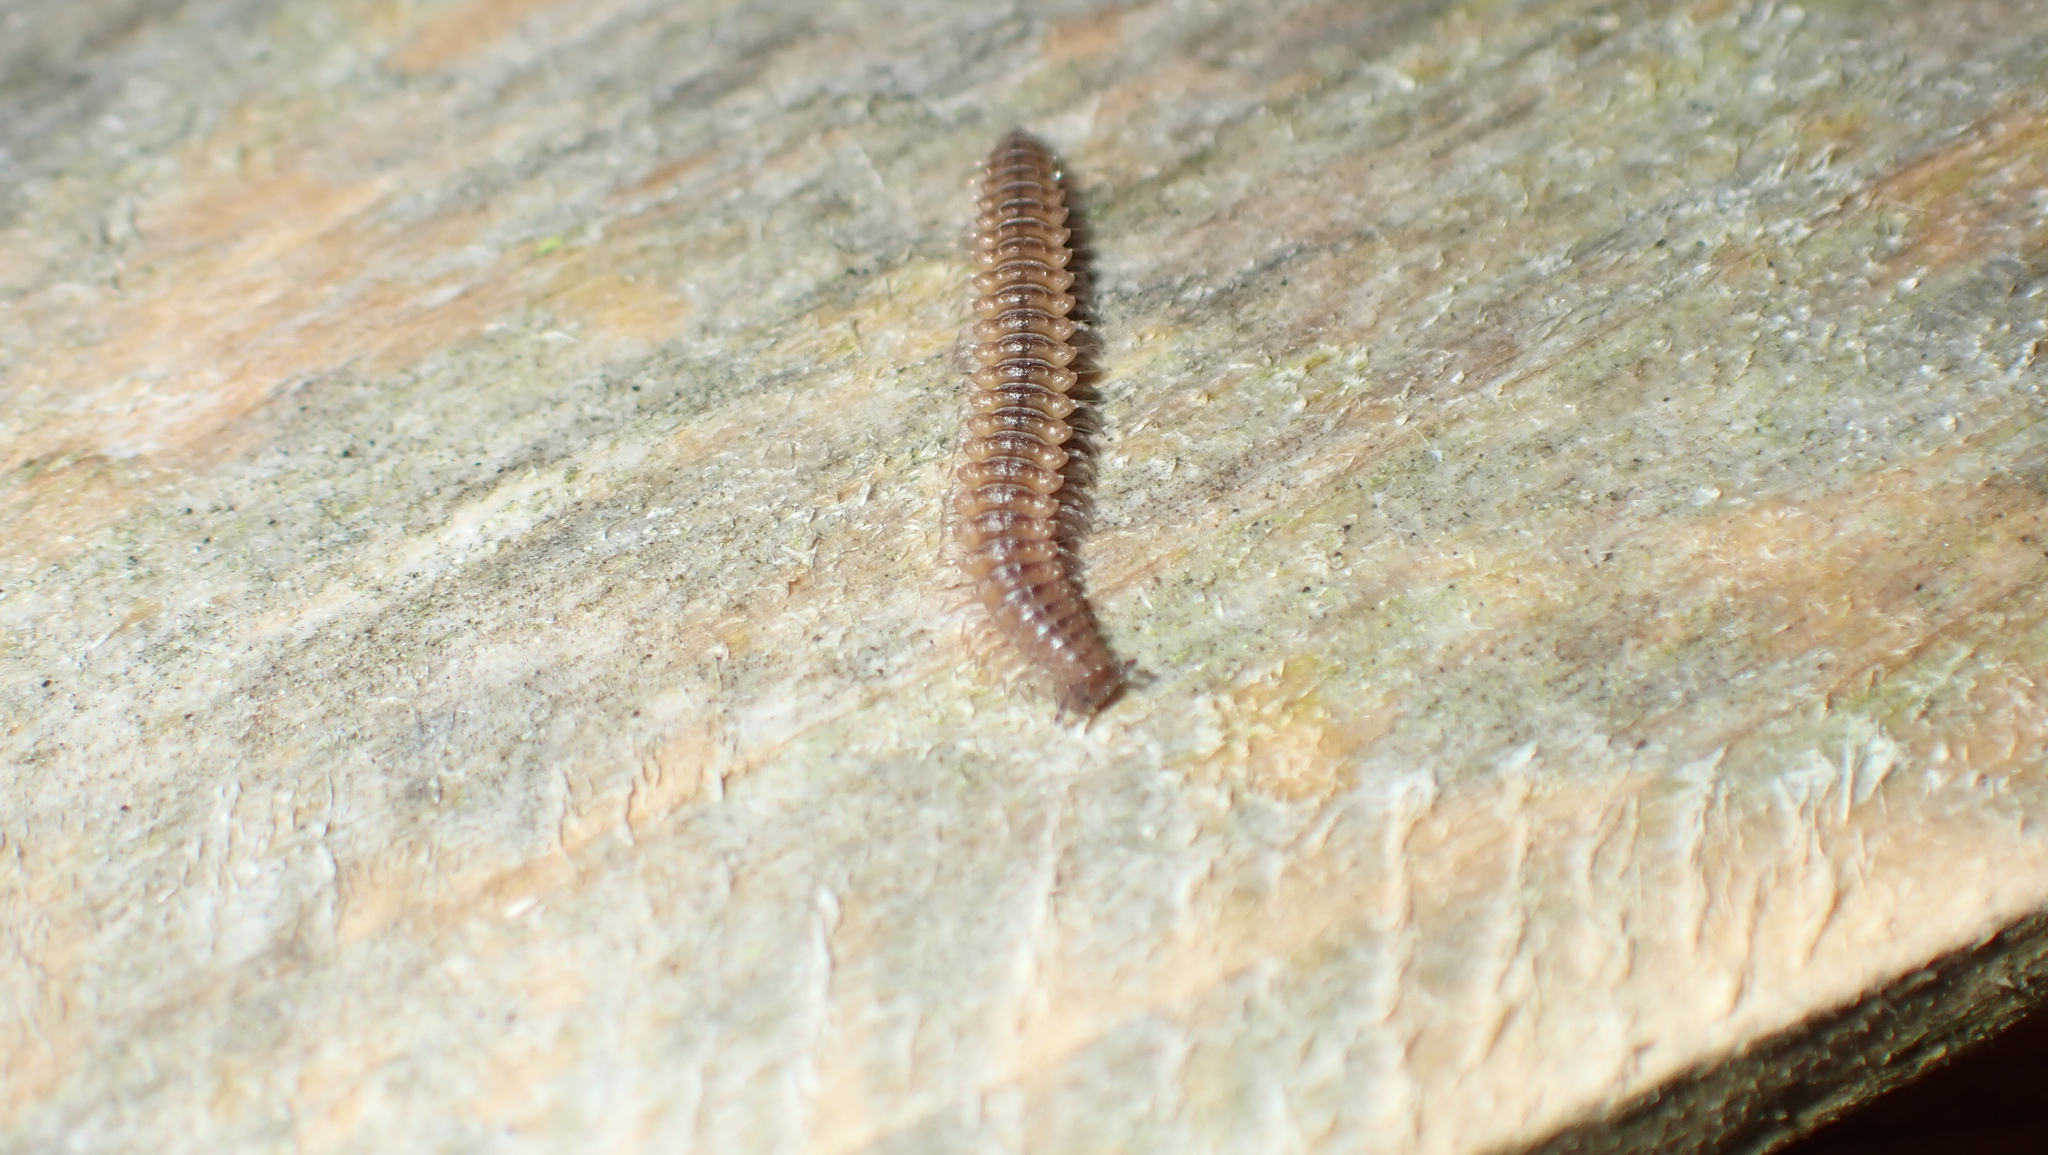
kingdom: Animalia
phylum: Arthropoda
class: Diplopoda
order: Chordeumatida
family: Craspedosomatidae
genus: Nanogona
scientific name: Nanogona polydesmoides
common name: Eyed flat-backed millipede
